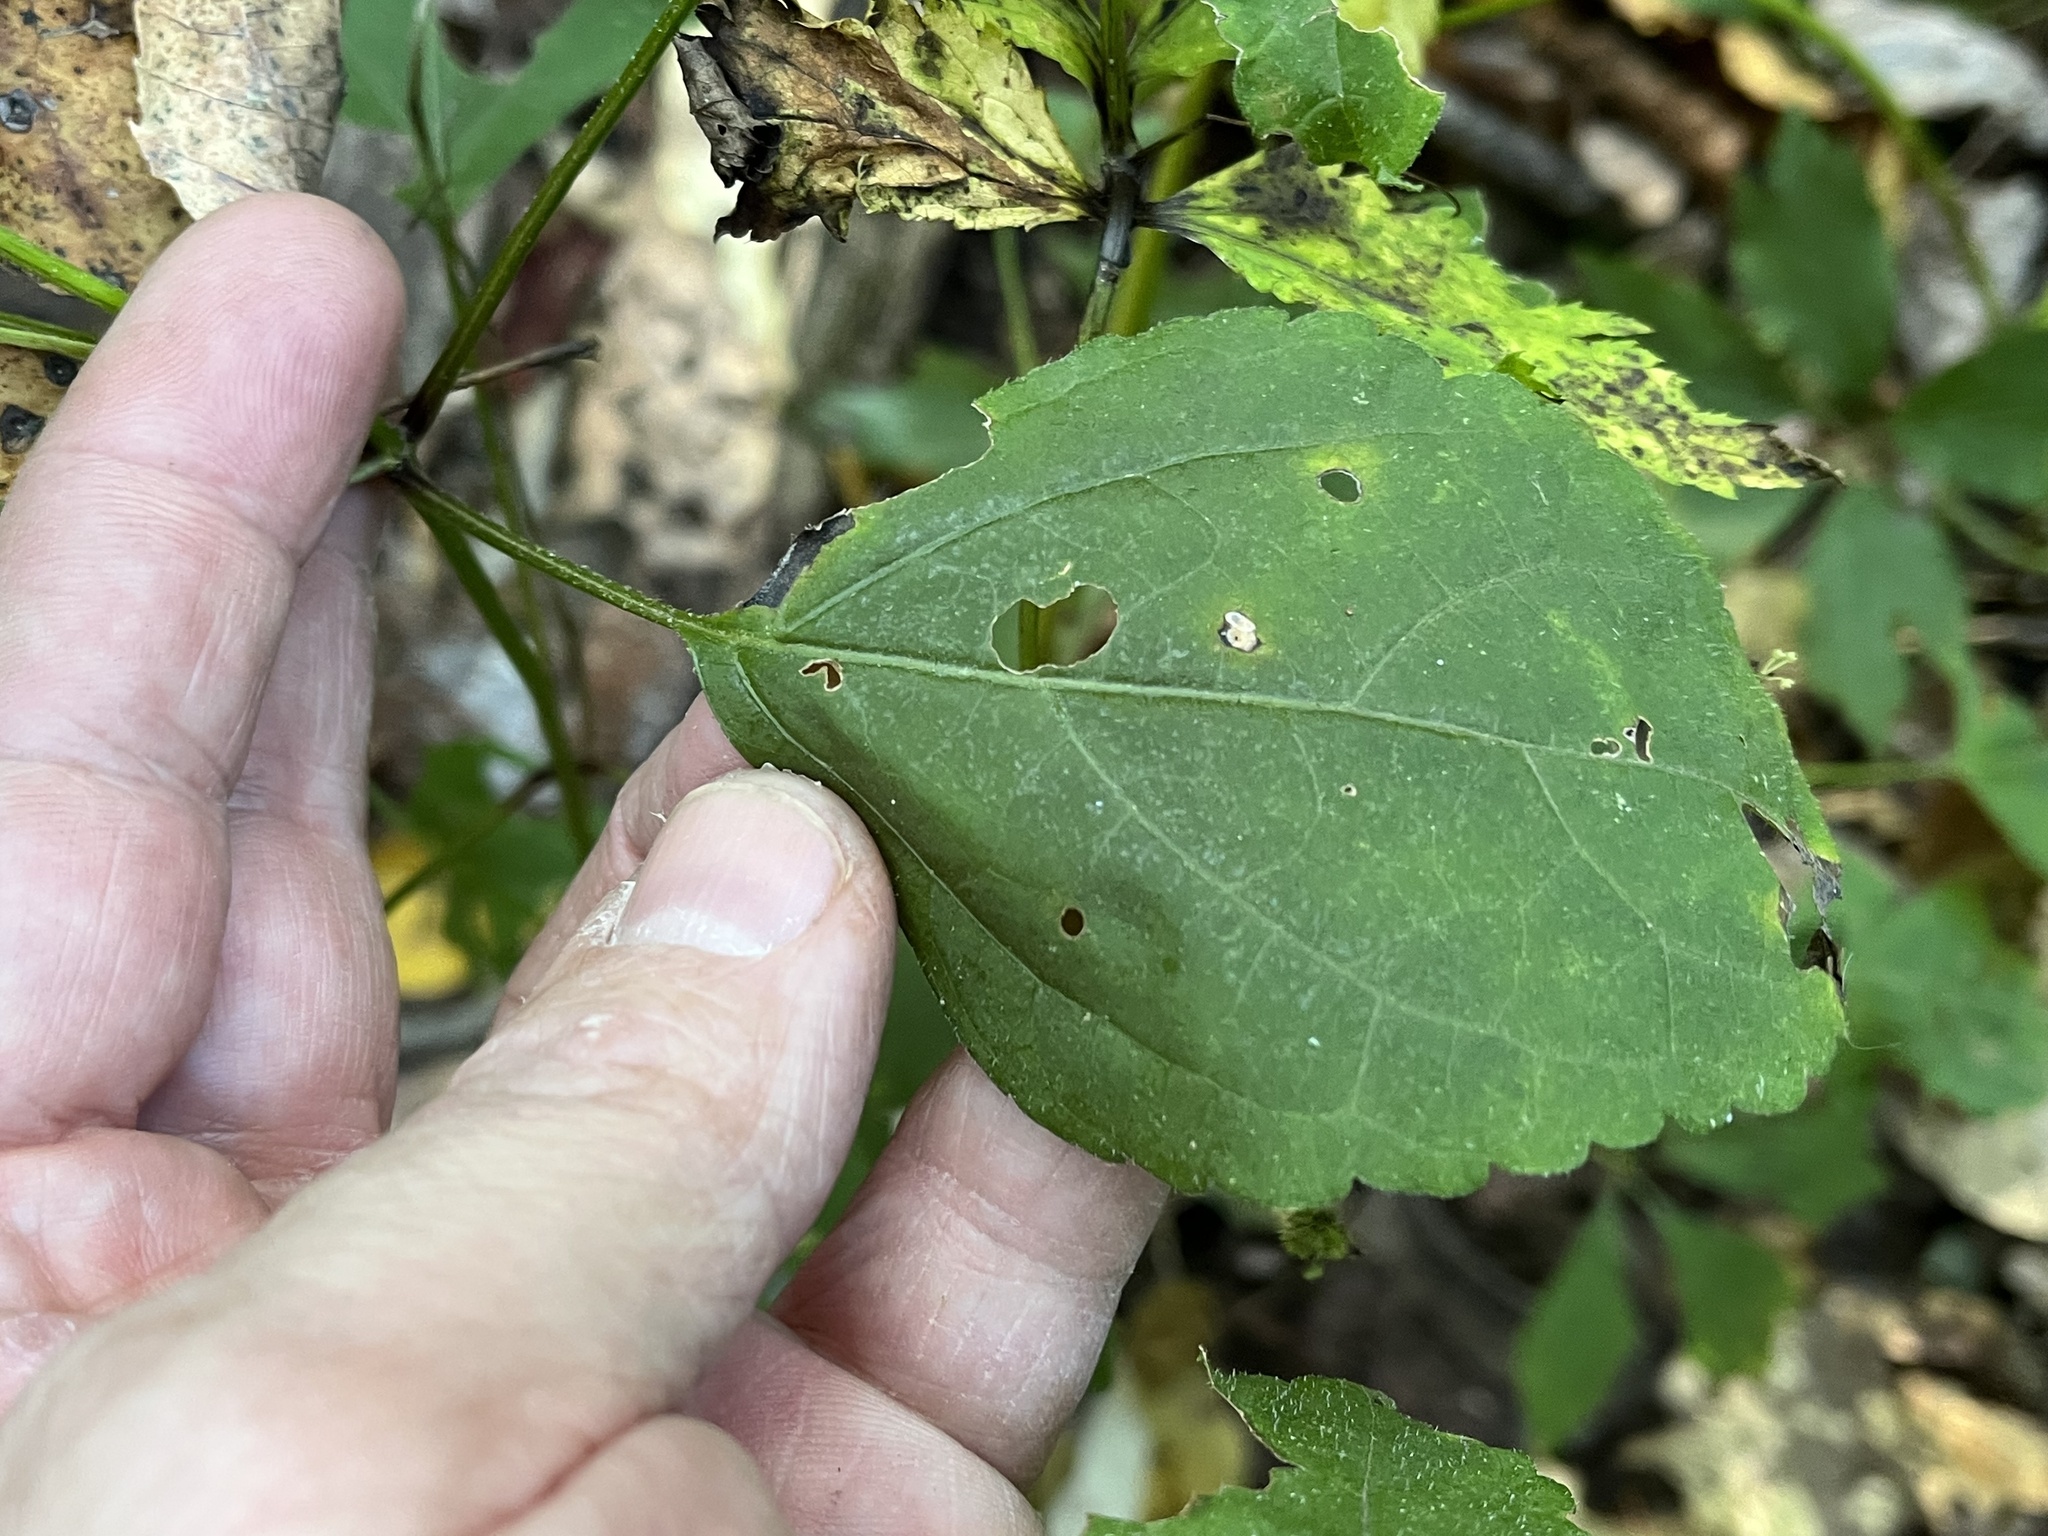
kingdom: Plantae
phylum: Tracheophyta
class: Magnoliopsida
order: Lamiales
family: Lamiaceae
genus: Collinsonia
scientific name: Collinsonia canadensis
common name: Northern horsebalm
